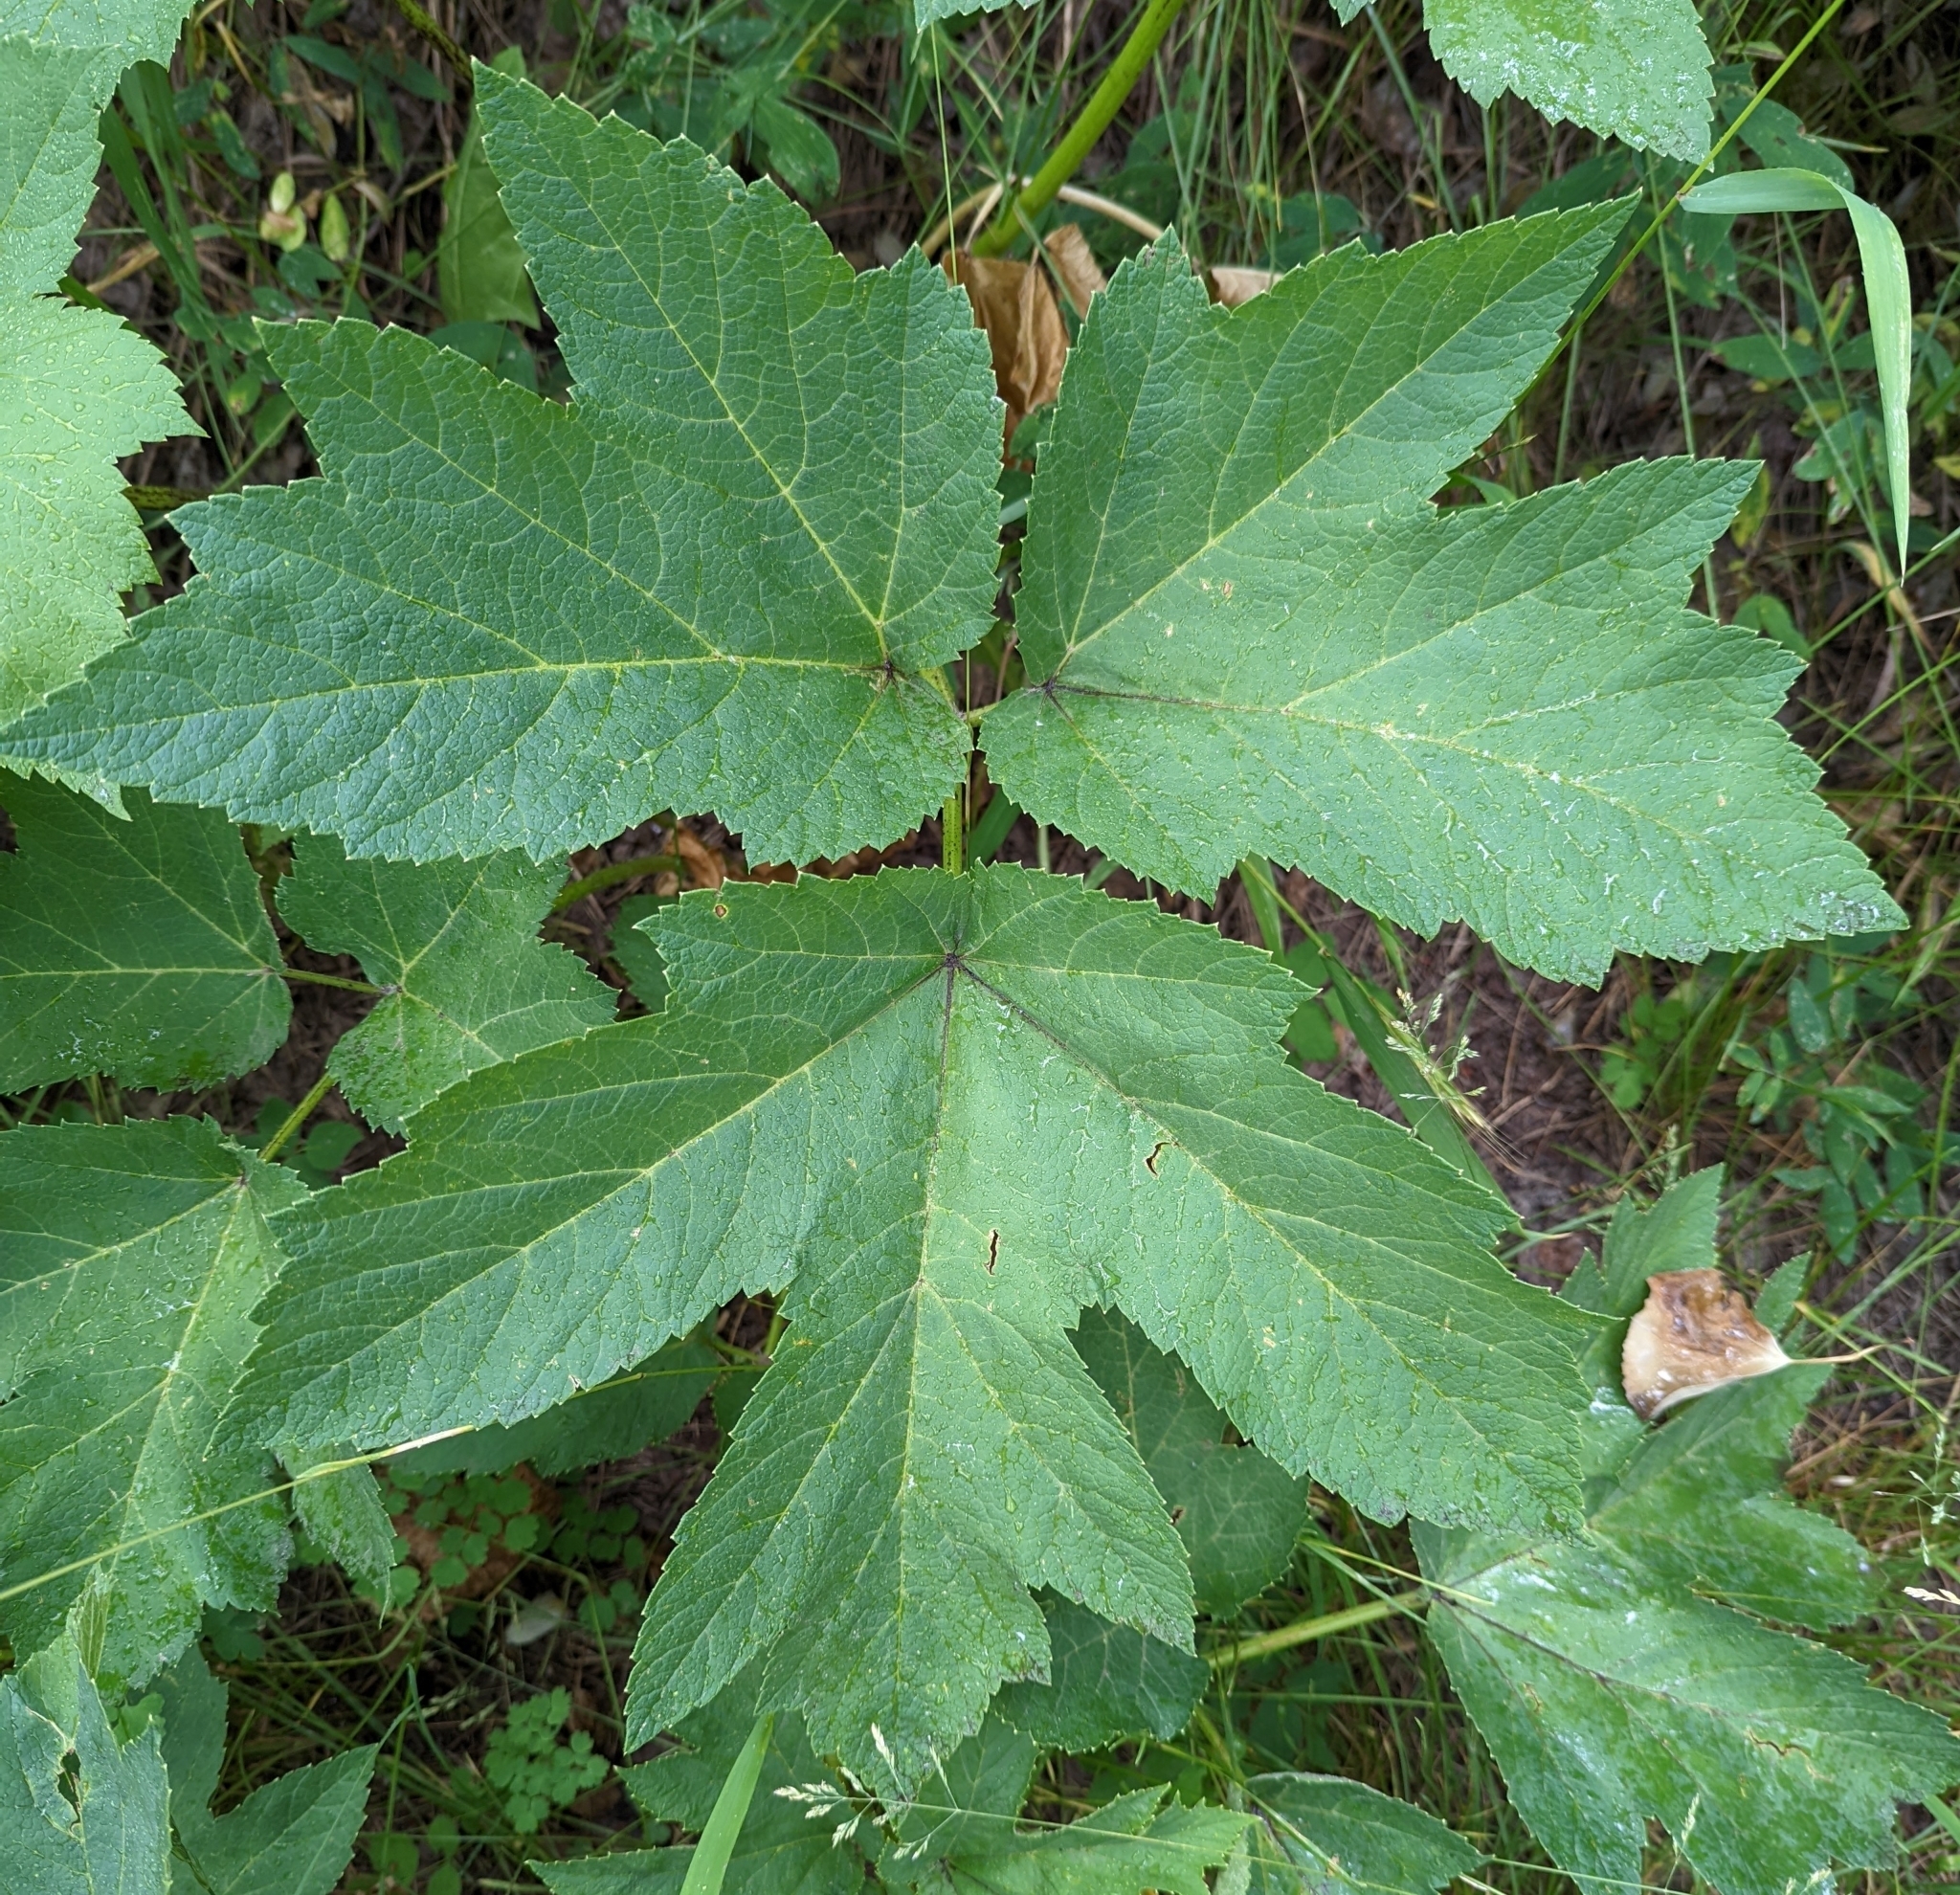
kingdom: Plantae
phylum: Tracheophyta
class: Magnoliopsida
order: Apiales
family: Apiaceae
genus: Heracleum
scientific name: Heracleum maximum
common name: American cow parsnip
